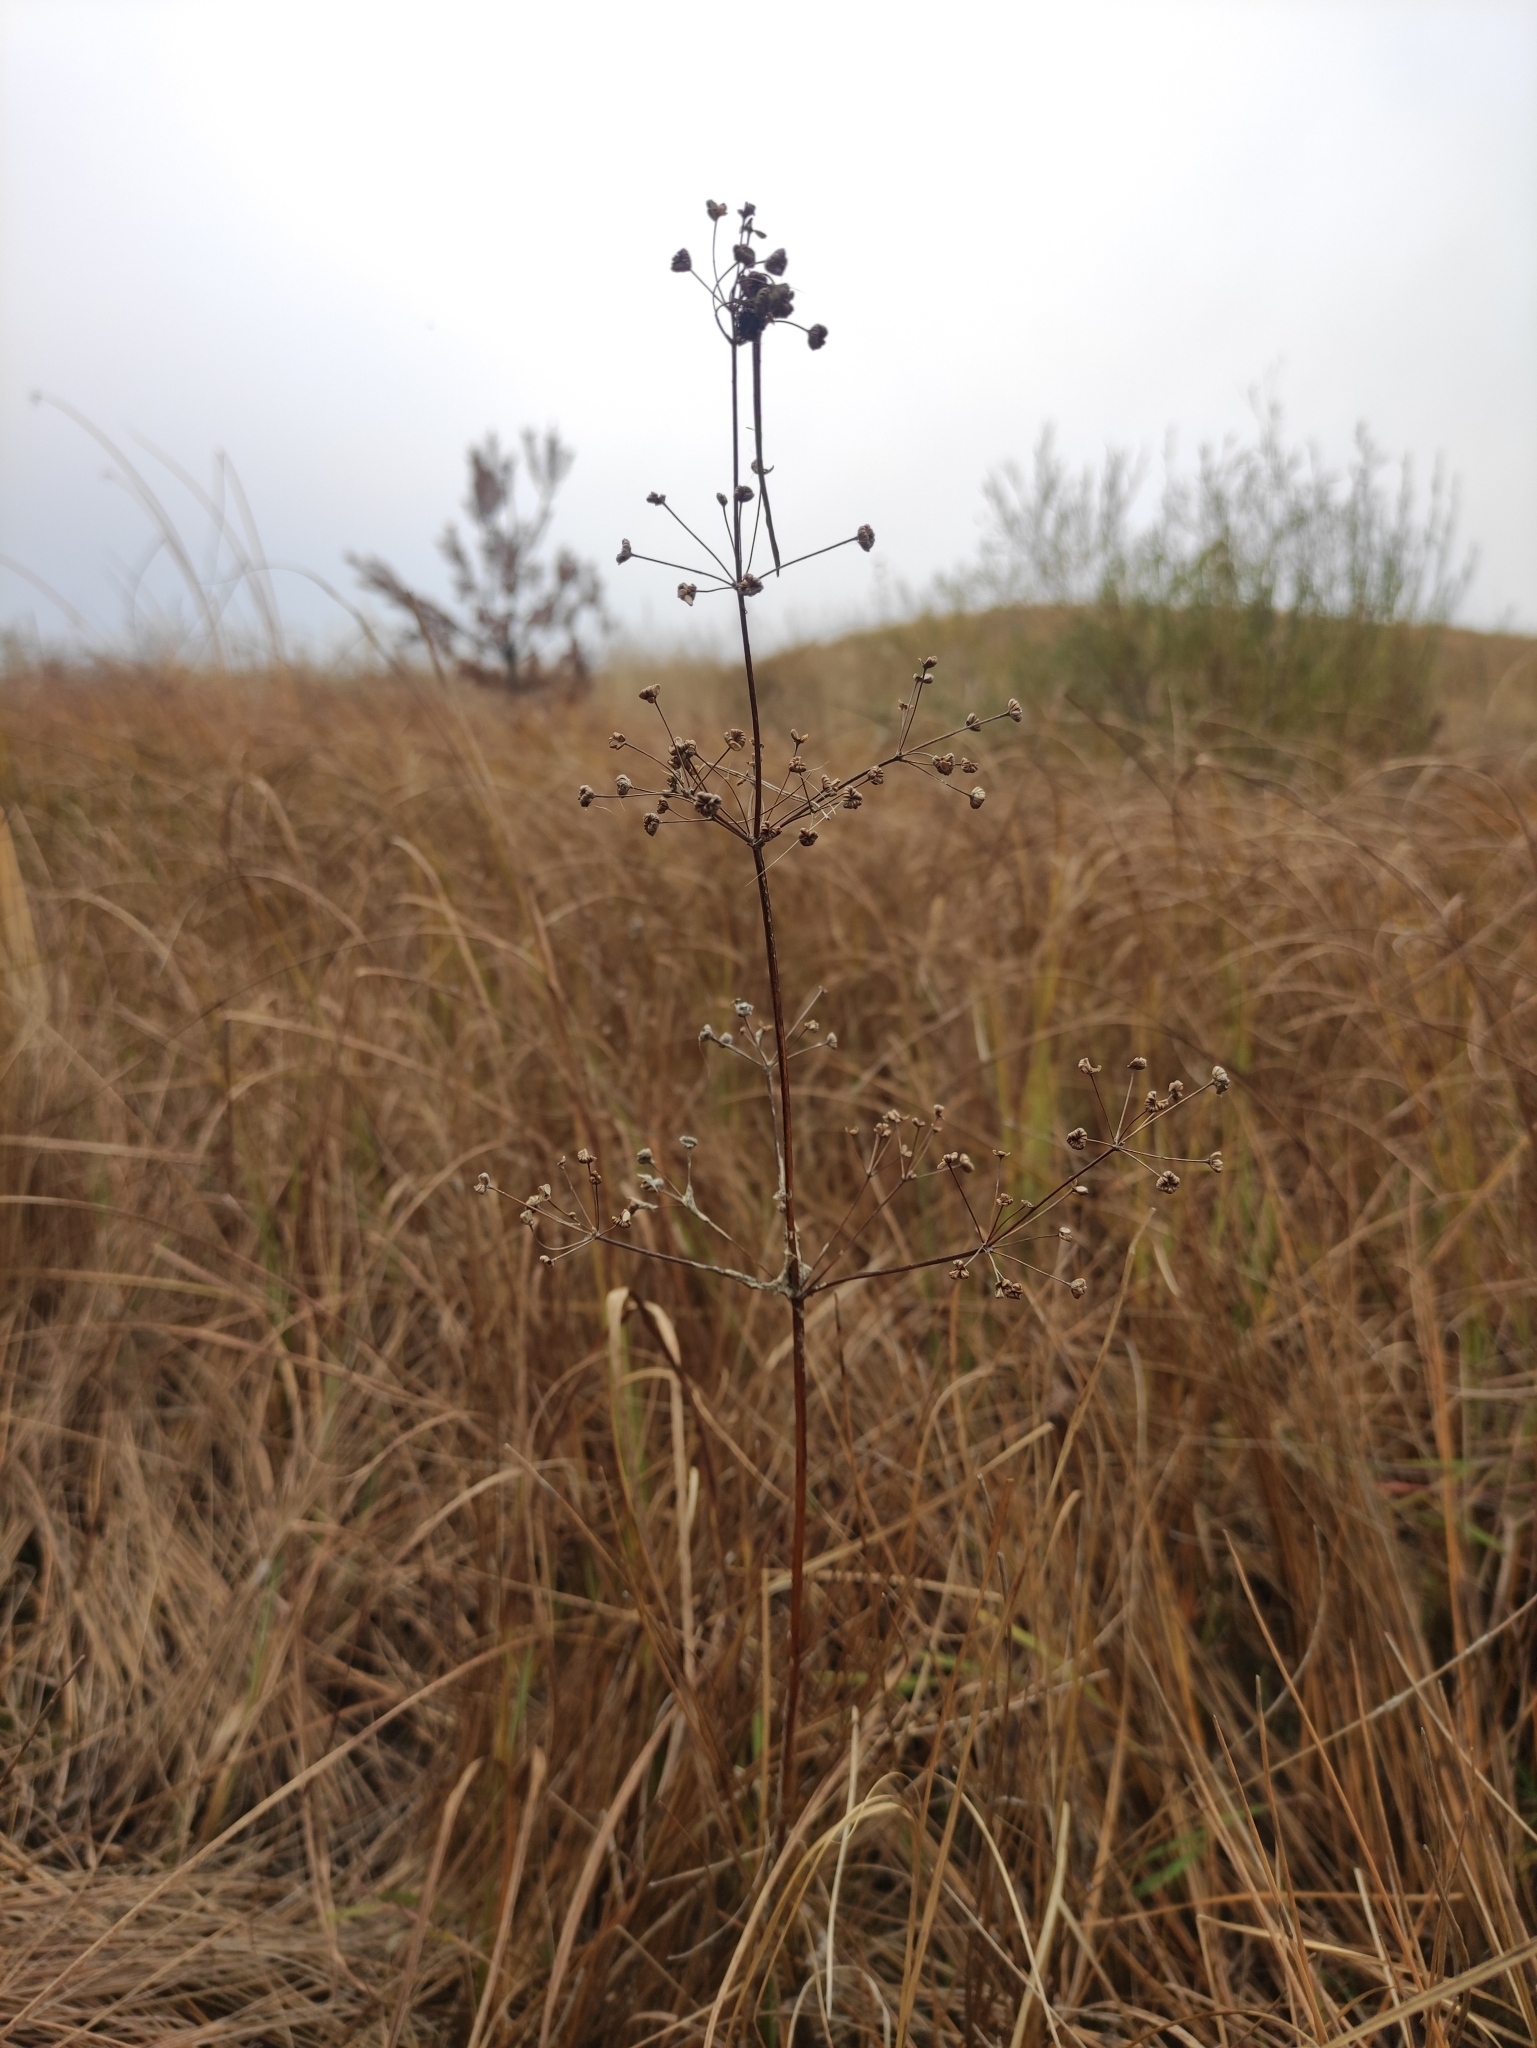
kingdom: Plantae
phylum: Tracheophyta
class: Liliopsida
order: Alismatales
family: Alismataceae
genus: Alisma
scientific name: Alisma plantago-aquatica
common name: Water-plantain
